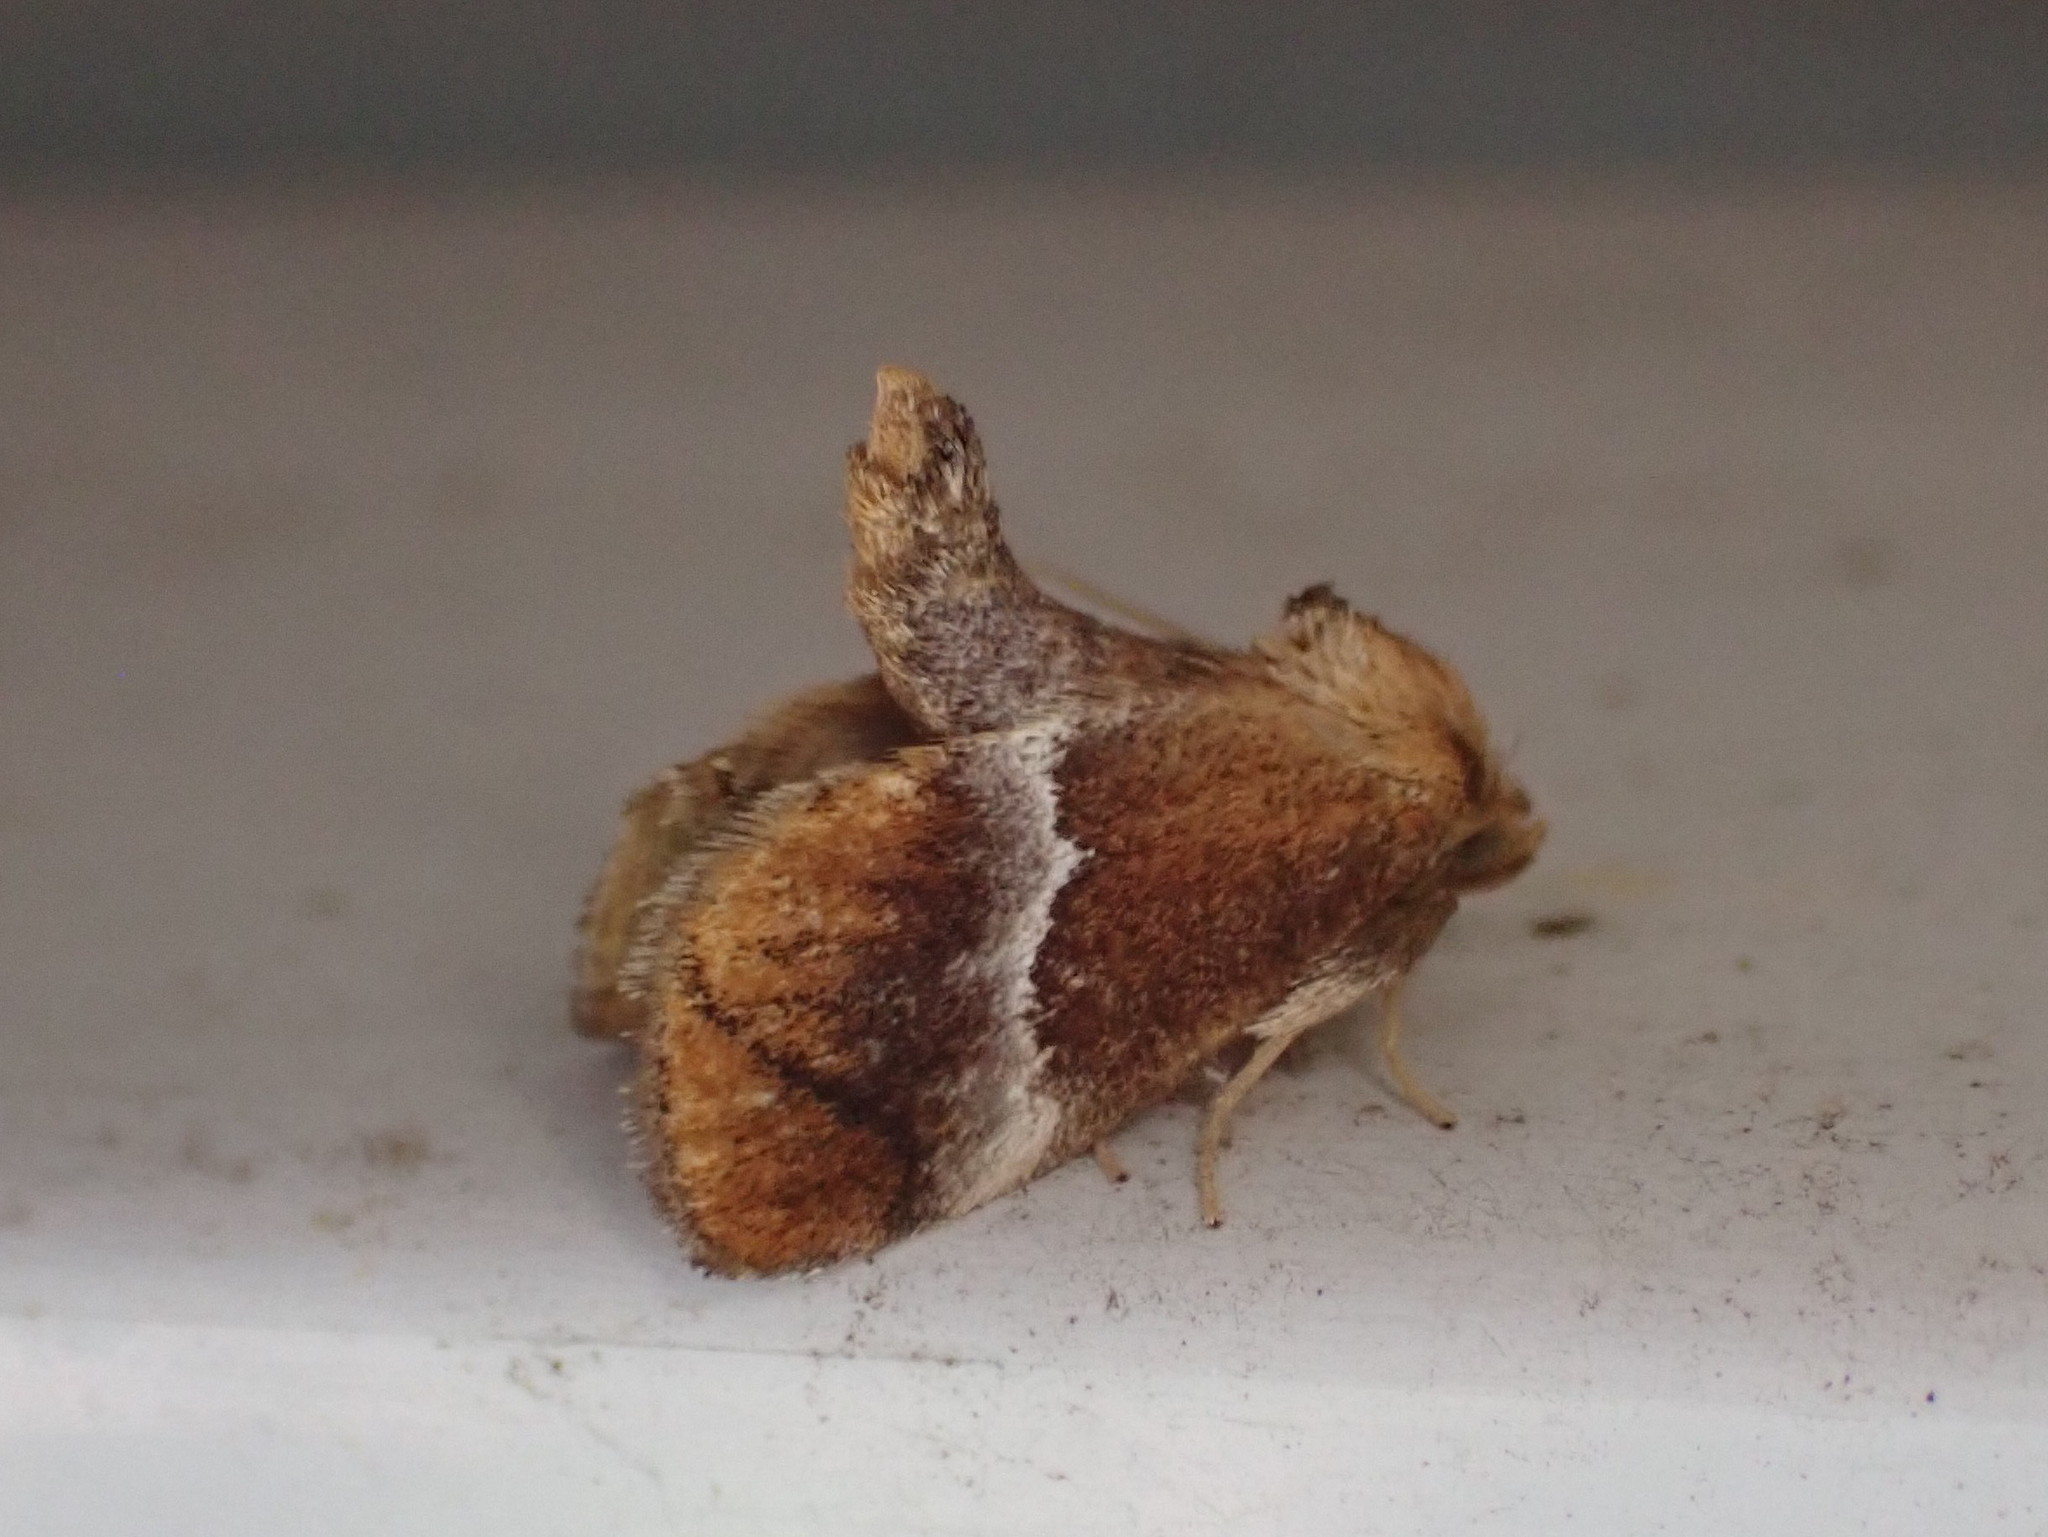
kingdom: Animalia
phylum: Arthropoda
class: Insecta
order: Lepidoptera
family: Limacodidae
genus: Lithacodes
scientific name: Lithacodes fasciola
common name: Yellow-shouldered slug moth
